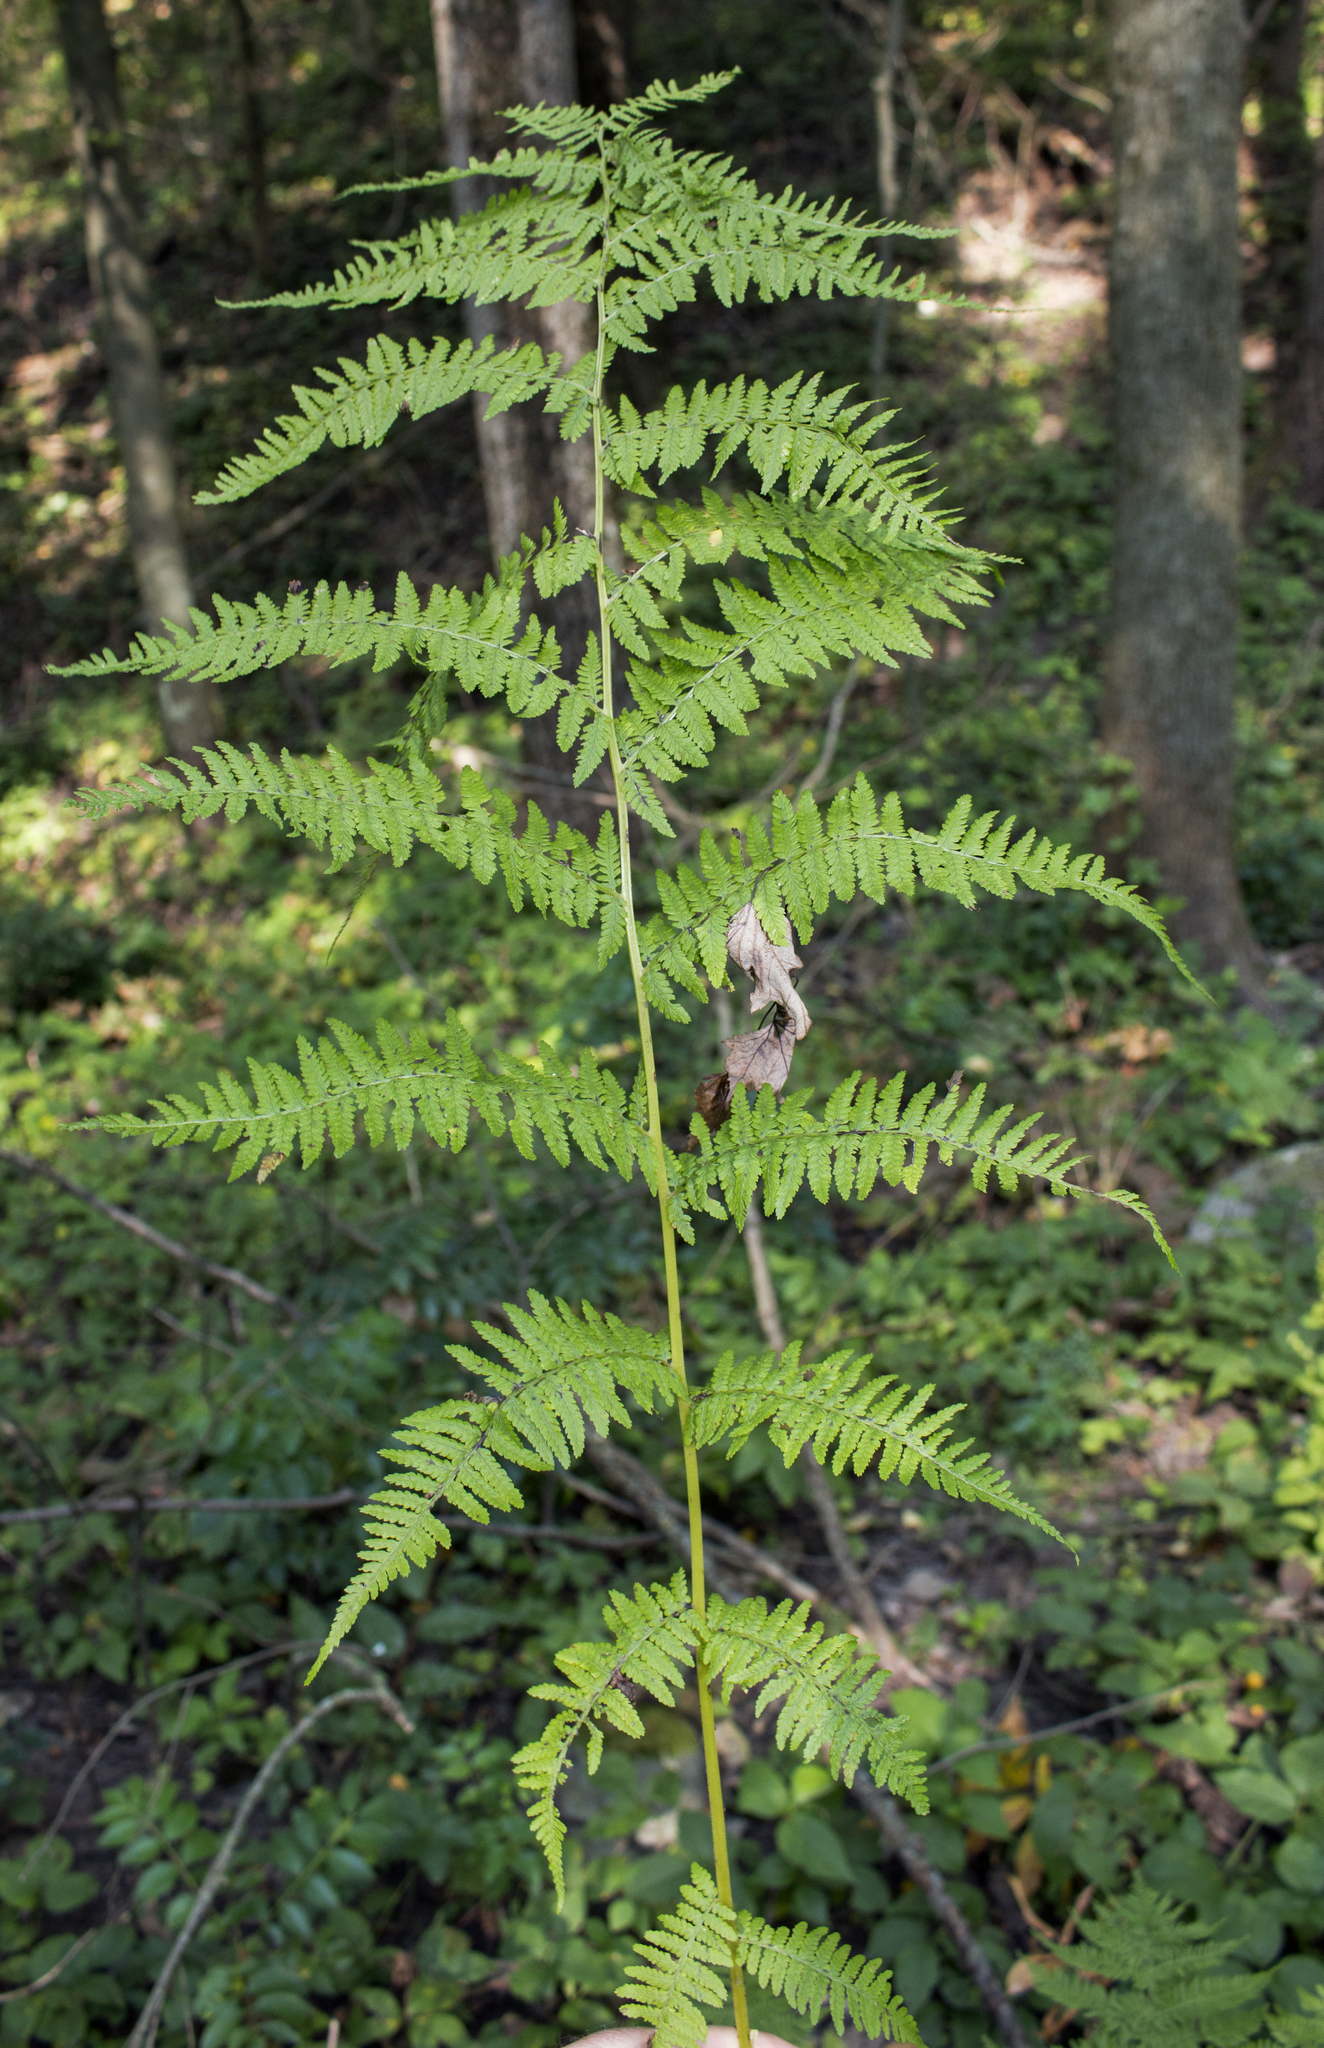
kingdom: Plantae
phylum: Tracheophyta
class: Polypodiopsida
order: Polypodiales
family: Athyriaceae
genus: Athyrium
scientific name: Athyrium angustum
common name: Northern lady fern
